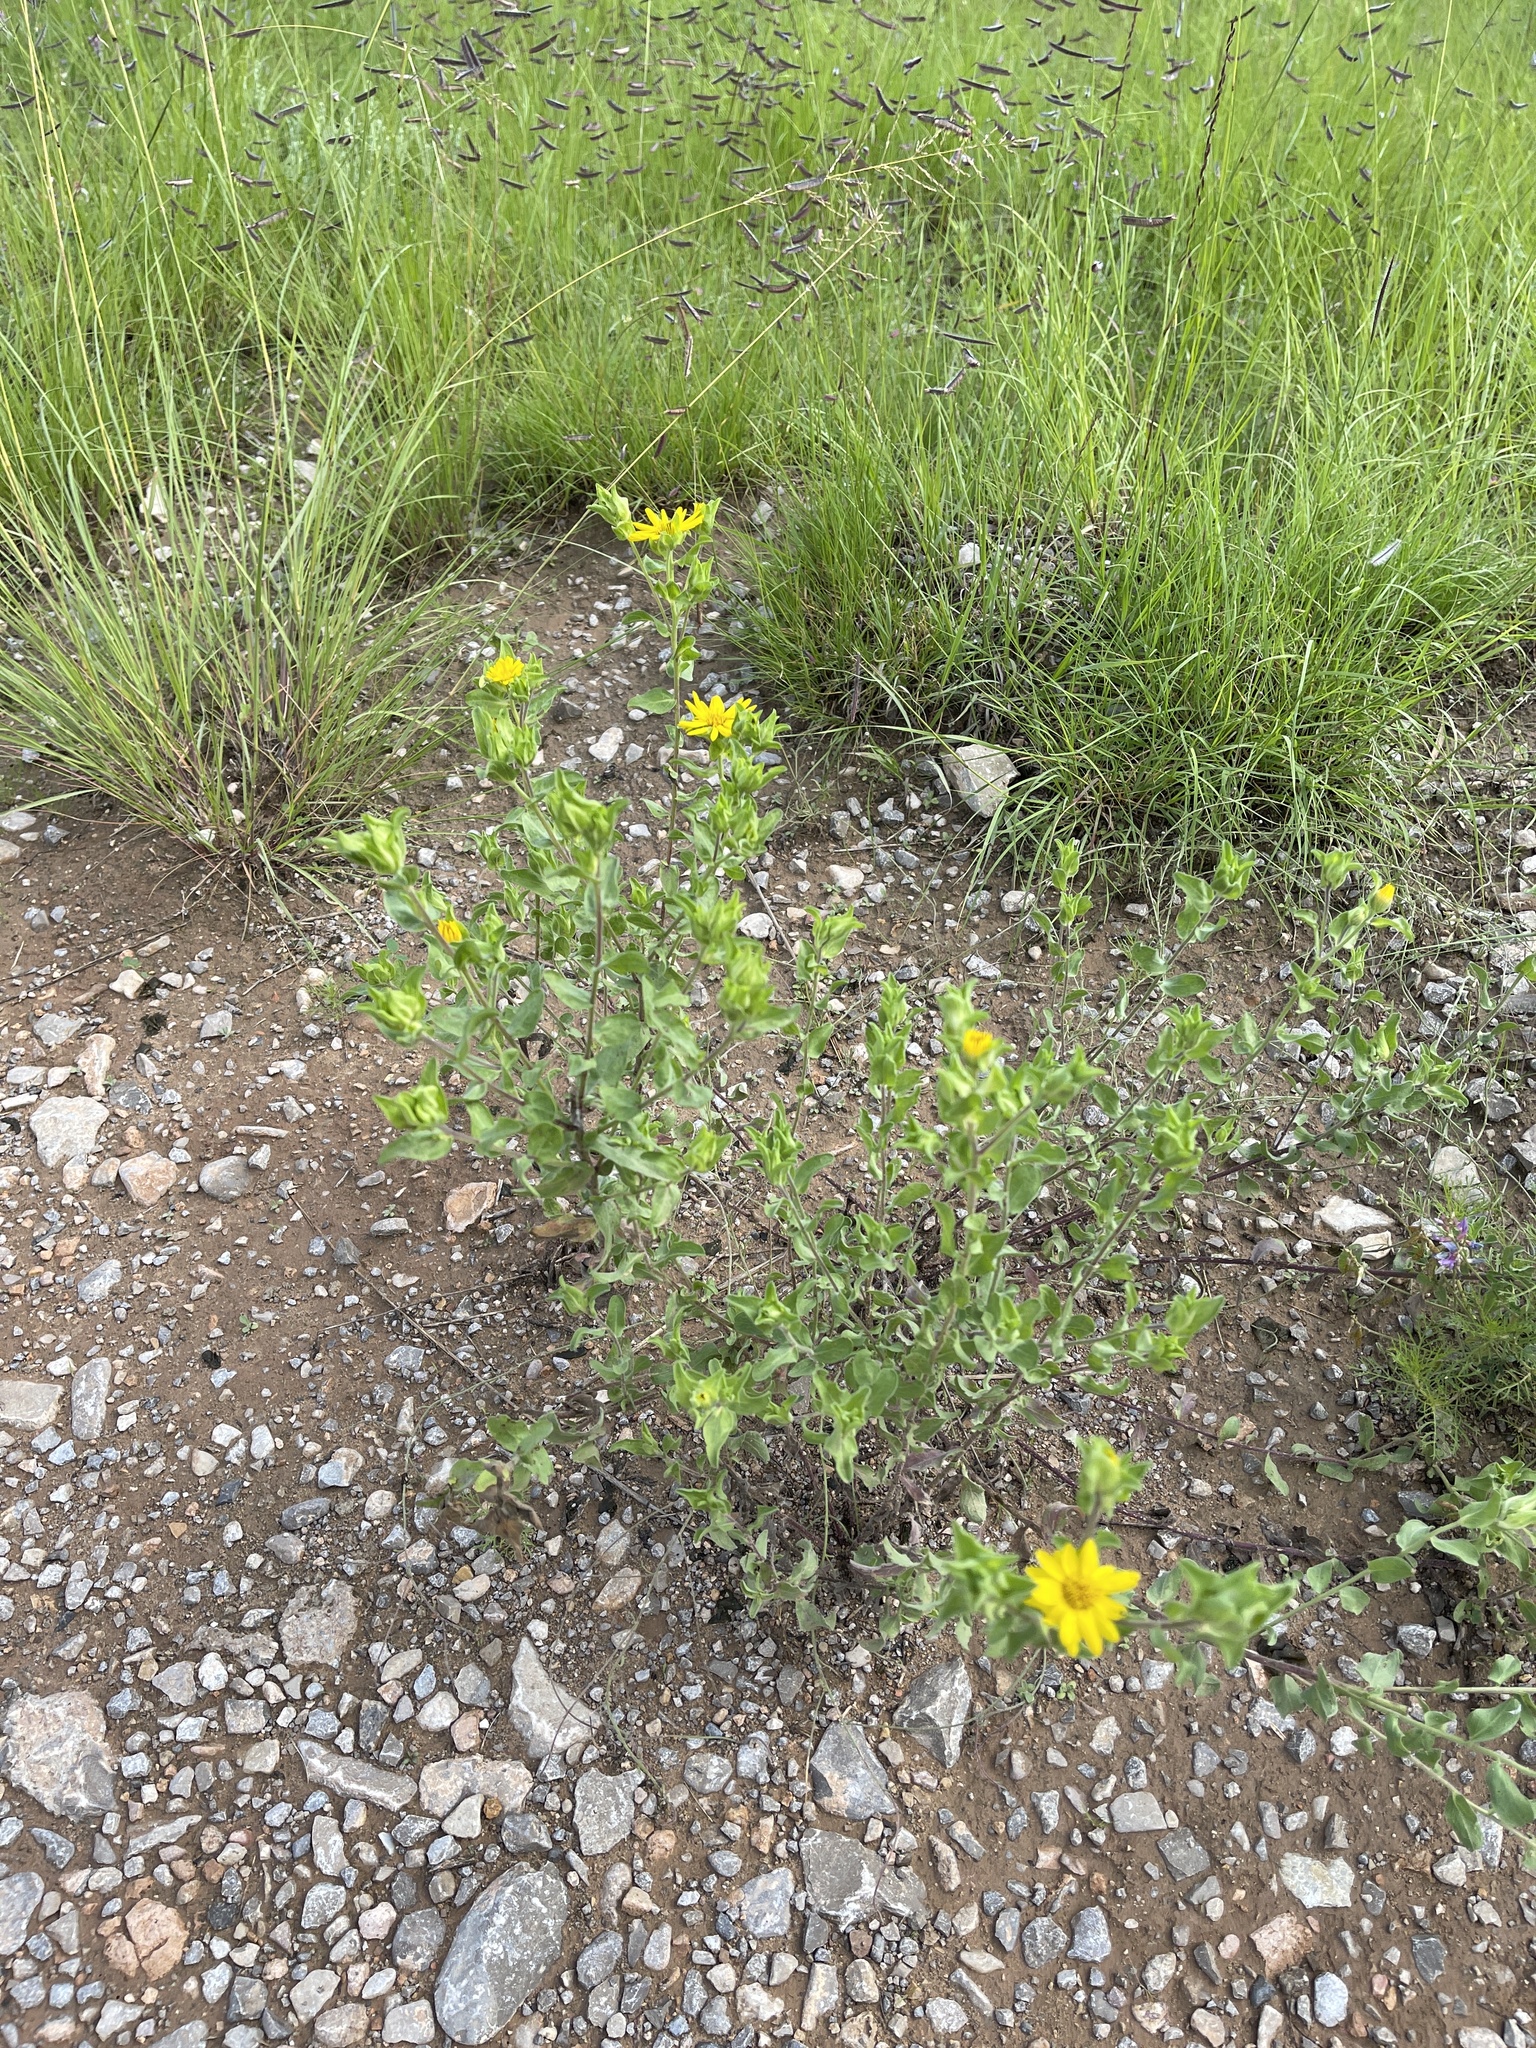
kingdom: Plantae
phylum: Tracheophyta
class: Magnoliopsida
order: Asterales
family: Asteraceae
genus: Heterotheca
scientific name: Heterotheca cryptocephala
